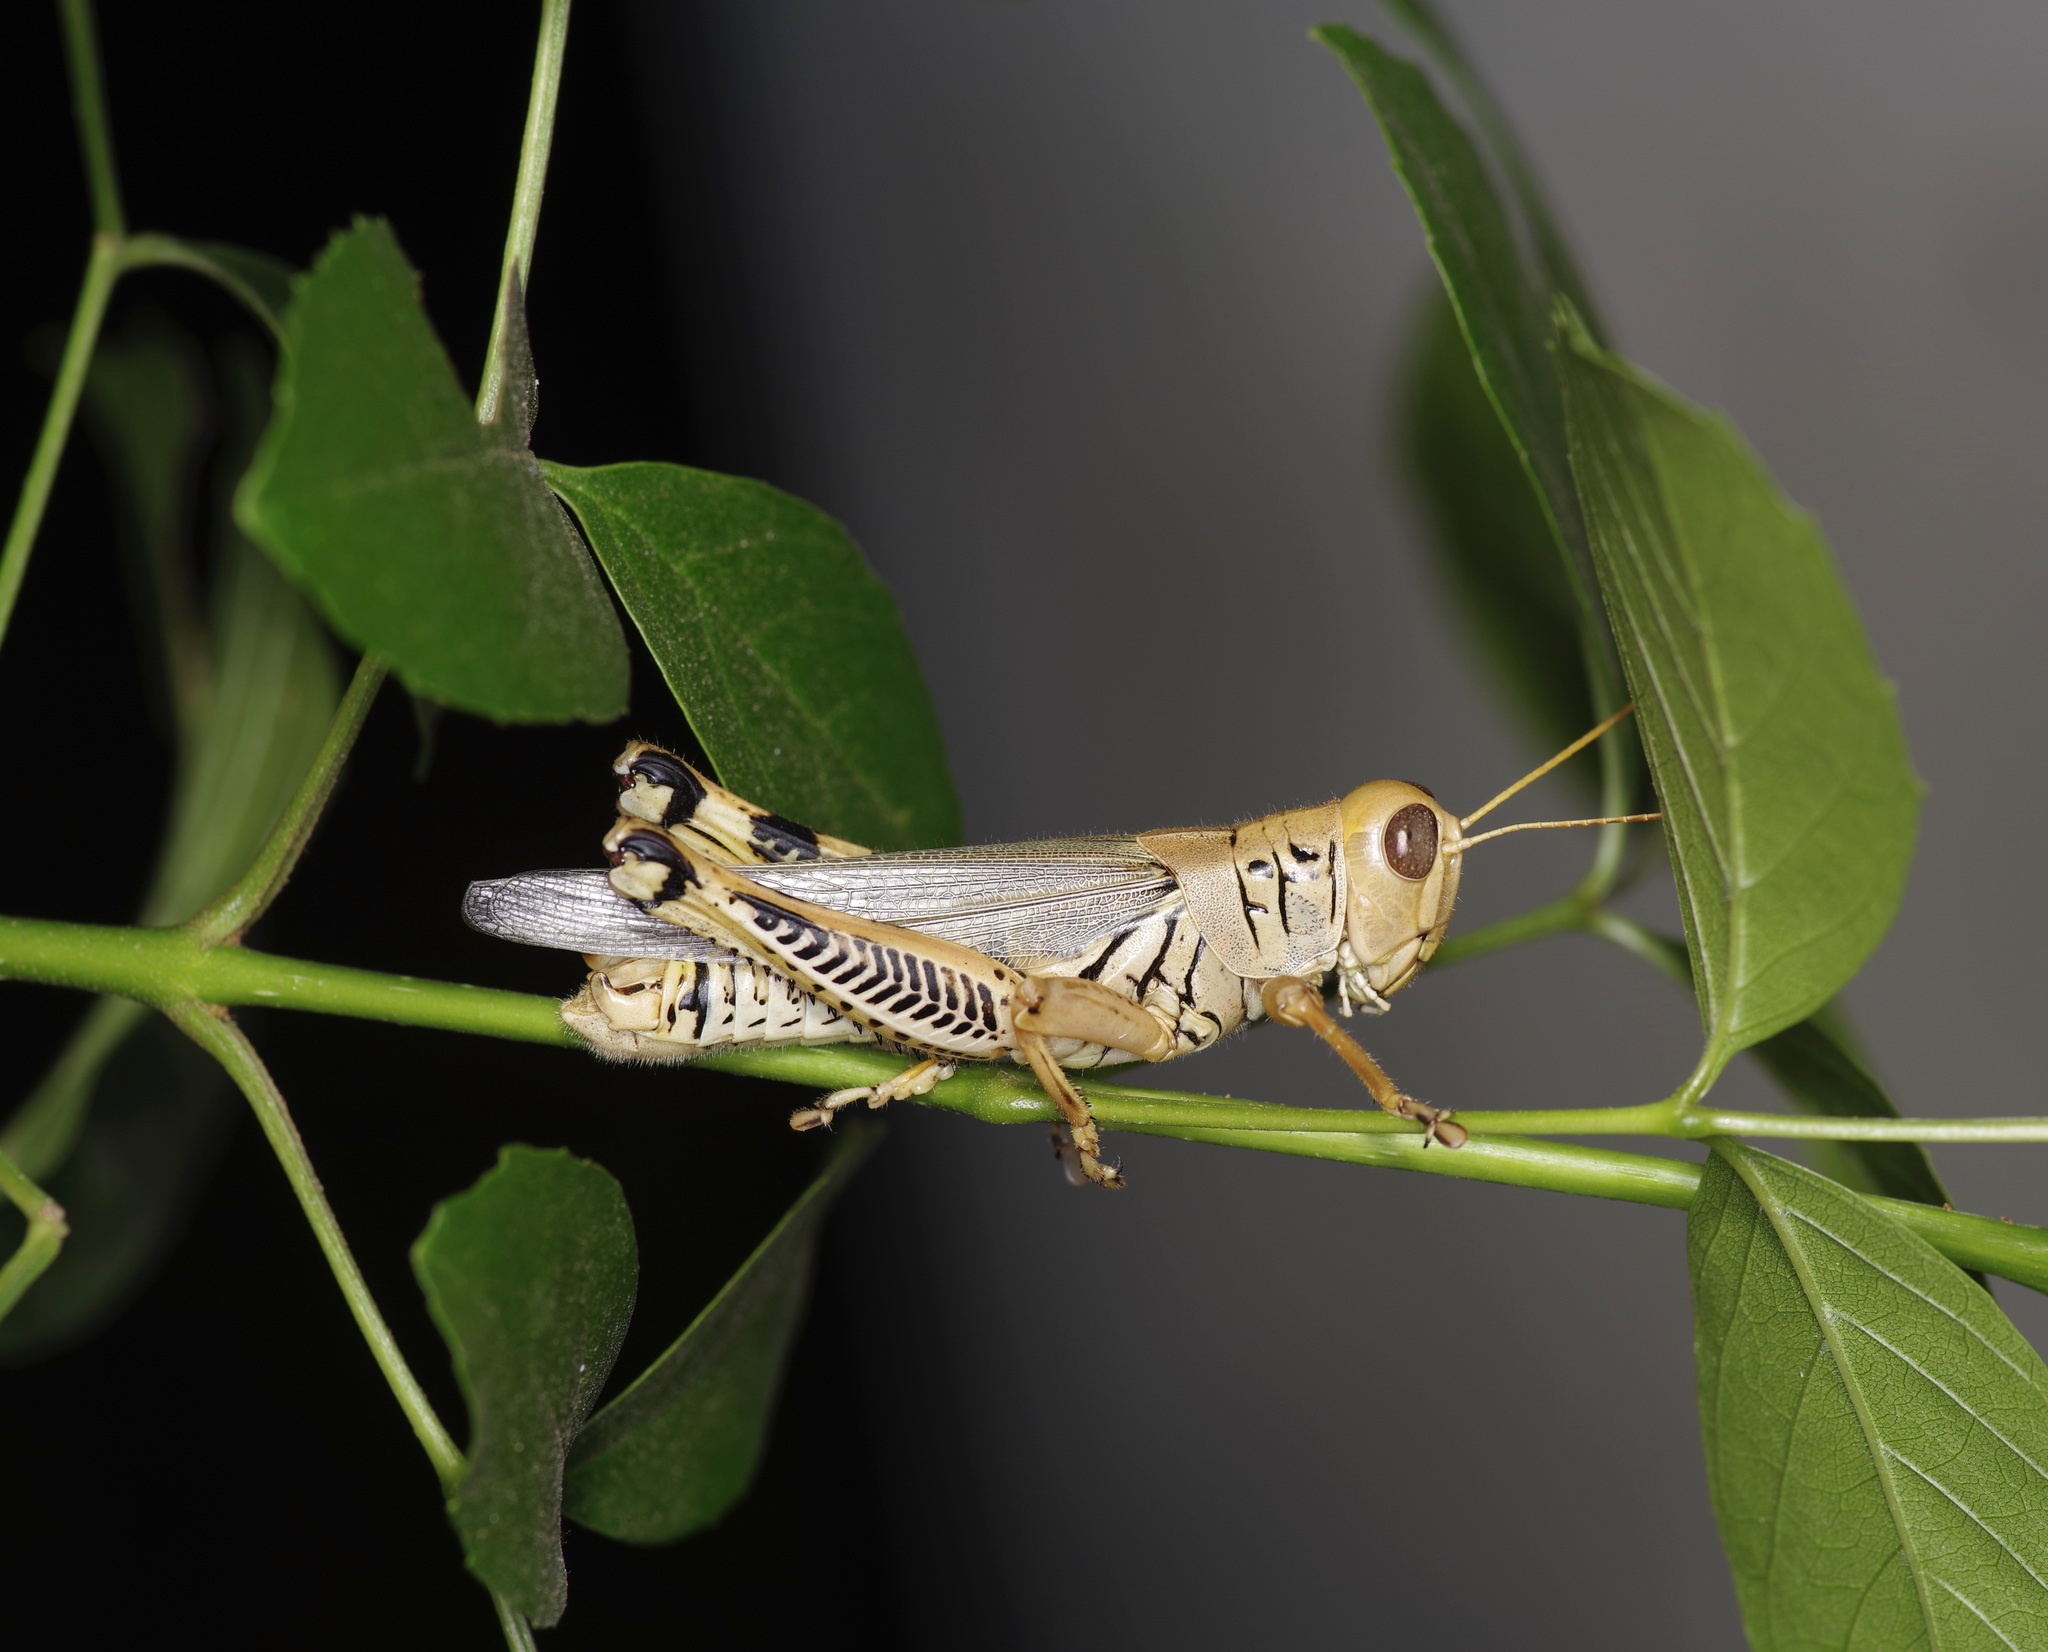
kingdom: Animalia
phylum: Arthropoda
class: Insecta
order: Orthoptera
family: Acrididae
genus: Melanoplus
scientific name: Melanoplus differentialis
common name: Differential grasshopper
